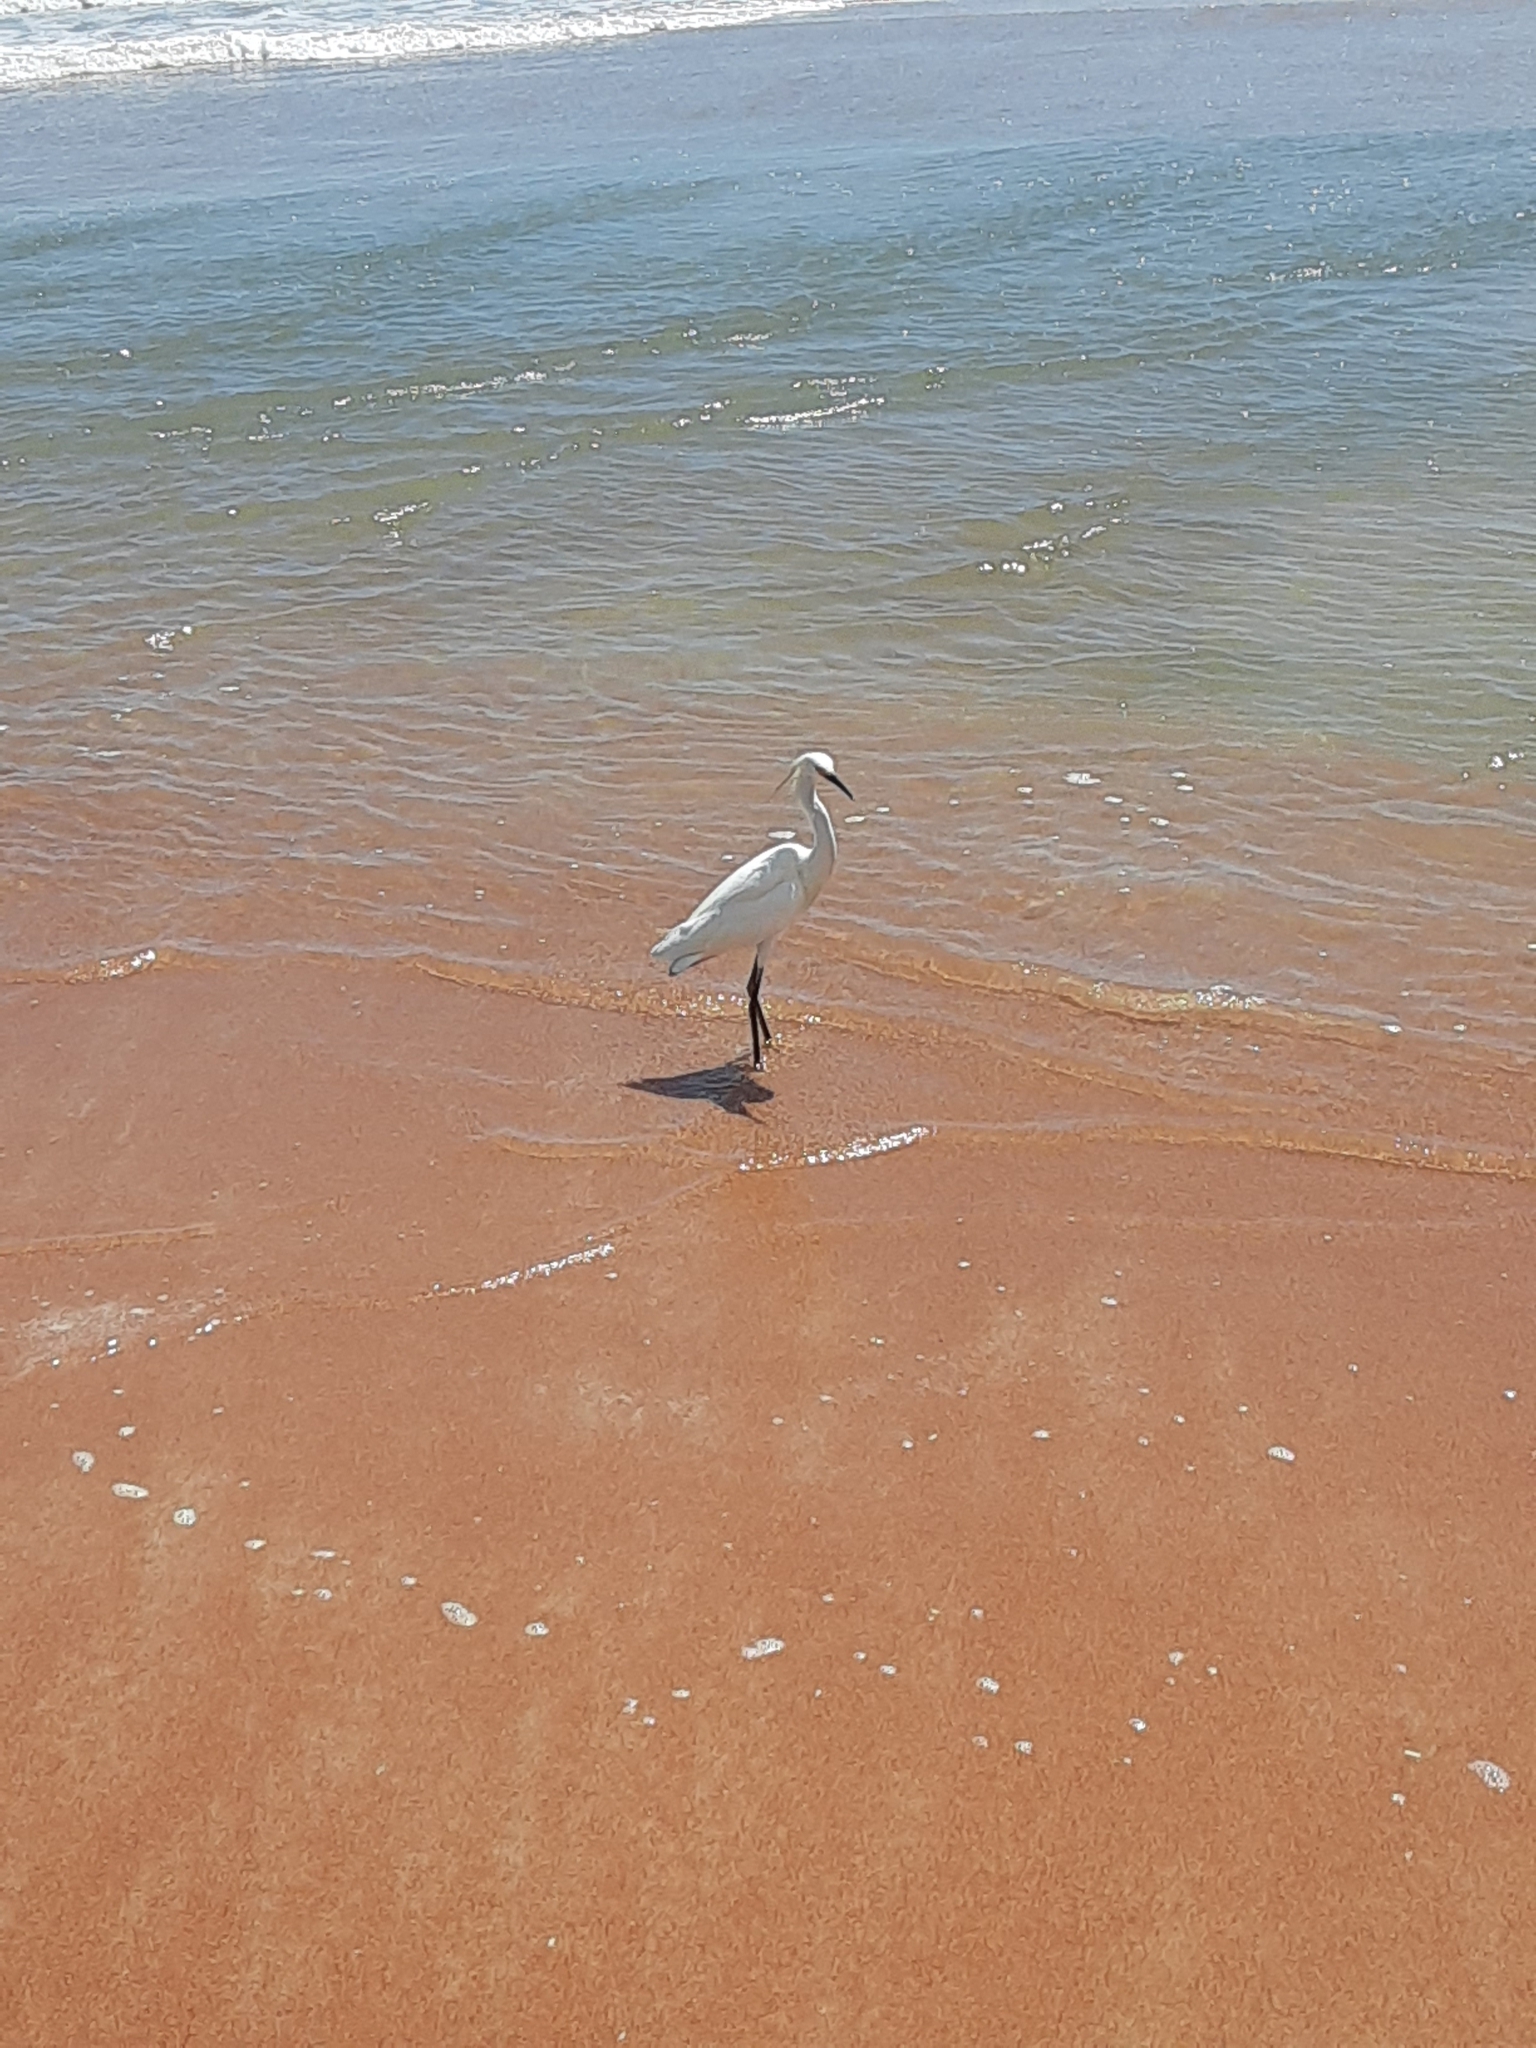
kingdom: Animalia
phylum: Chordata
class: Aves
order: Pelecaniformes
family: Ardeidae
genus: Egretta
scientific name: Egretta thula
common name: Snowy egret
